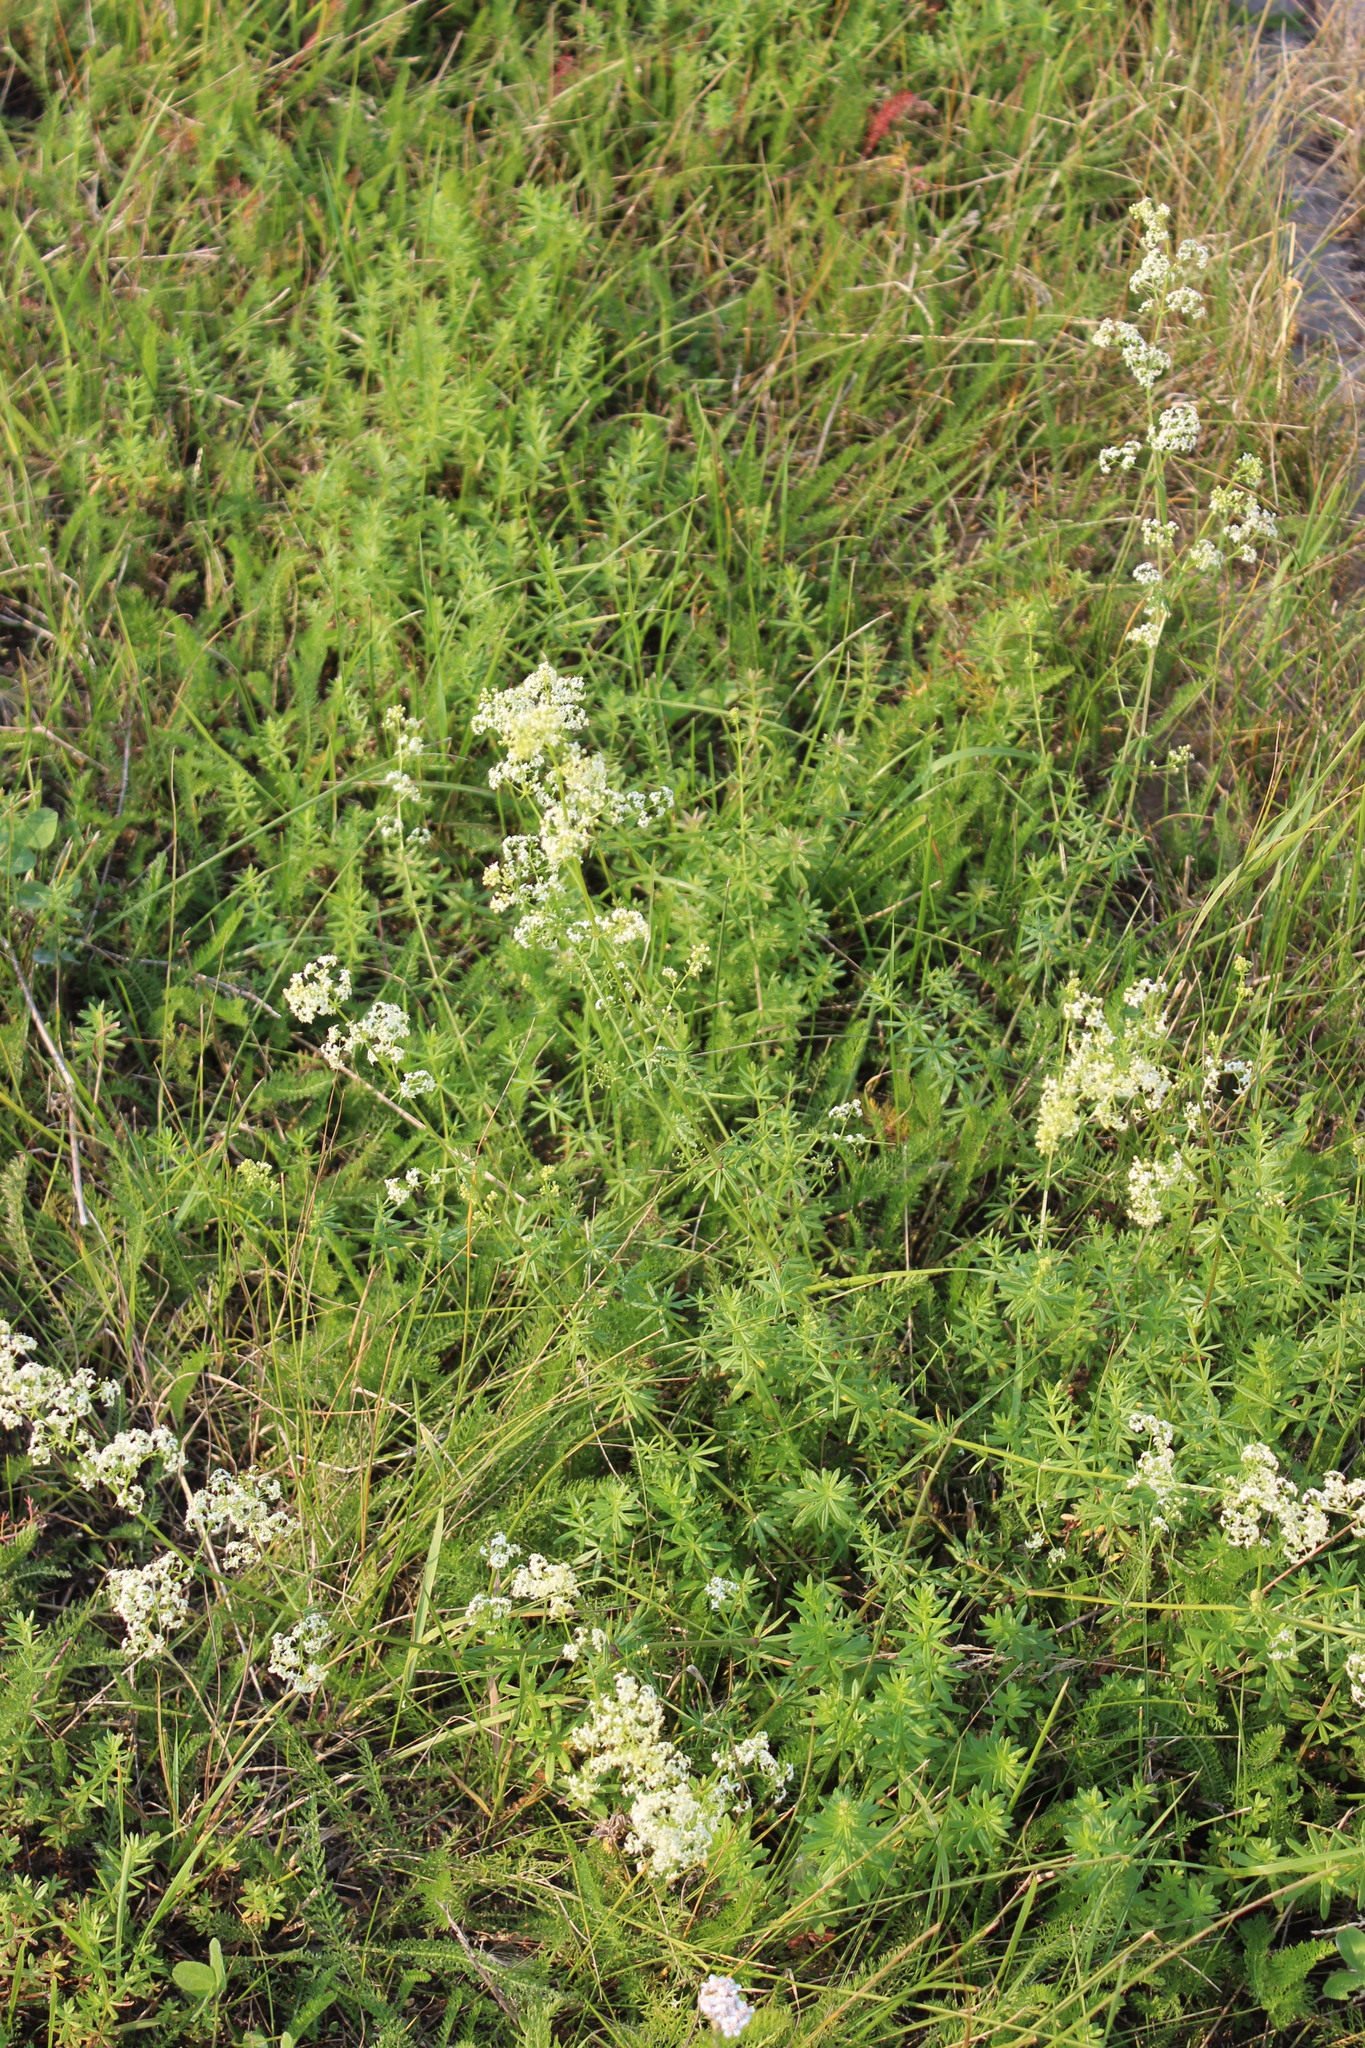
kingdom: Plantae
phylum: Tracheophyta
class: Magnoliopsida
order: Gentianales
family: Rubiaceae
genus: Galium
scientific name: Galium mollugo
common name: Hedge bedstraw
